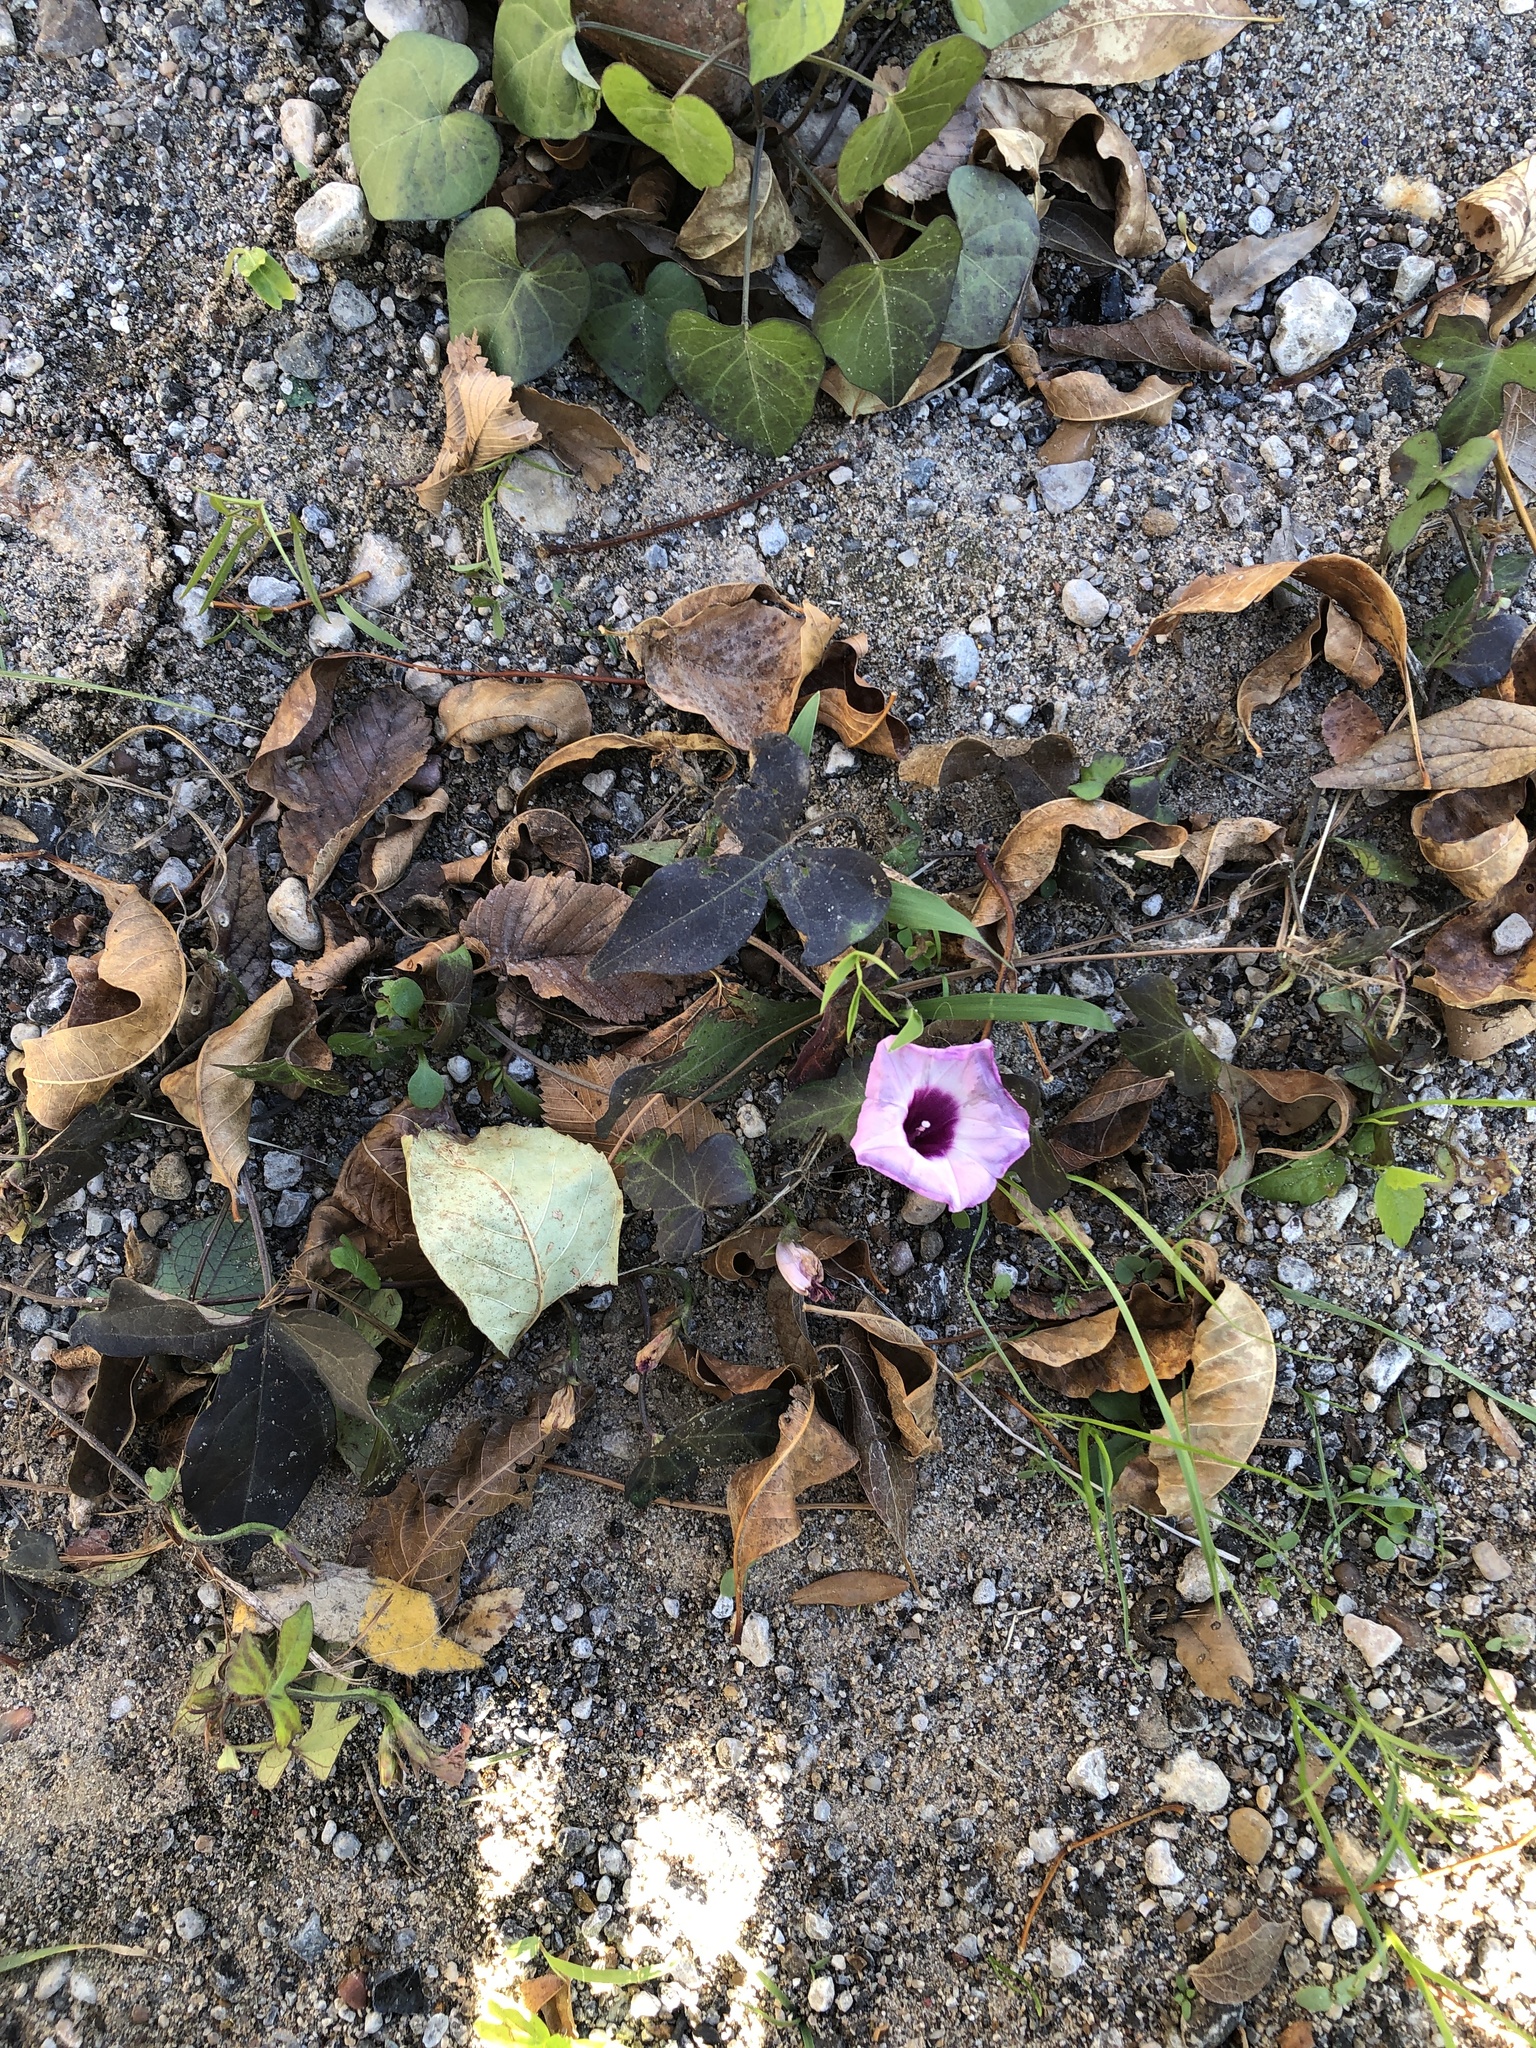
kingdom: Plantae
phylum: Tracheophyta
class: Magnoliopsida
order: Solanales
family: Convolvulaceae
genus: Ipomoea
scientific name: Ipomoea cordatotriloba
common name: Cotton morning glory
